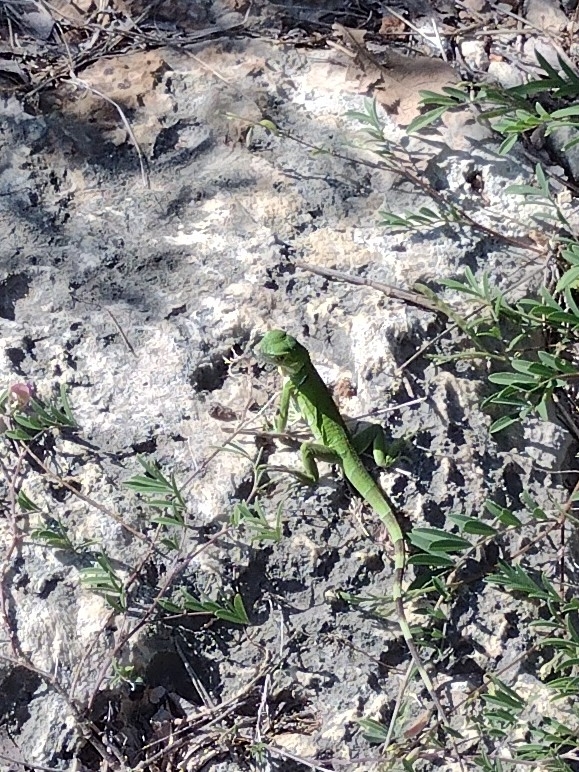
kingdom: Animalia
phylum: Chordata
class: Squamata
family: Iguanidae
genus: Iguana
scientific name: Iguana iguana
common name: Green iguana
